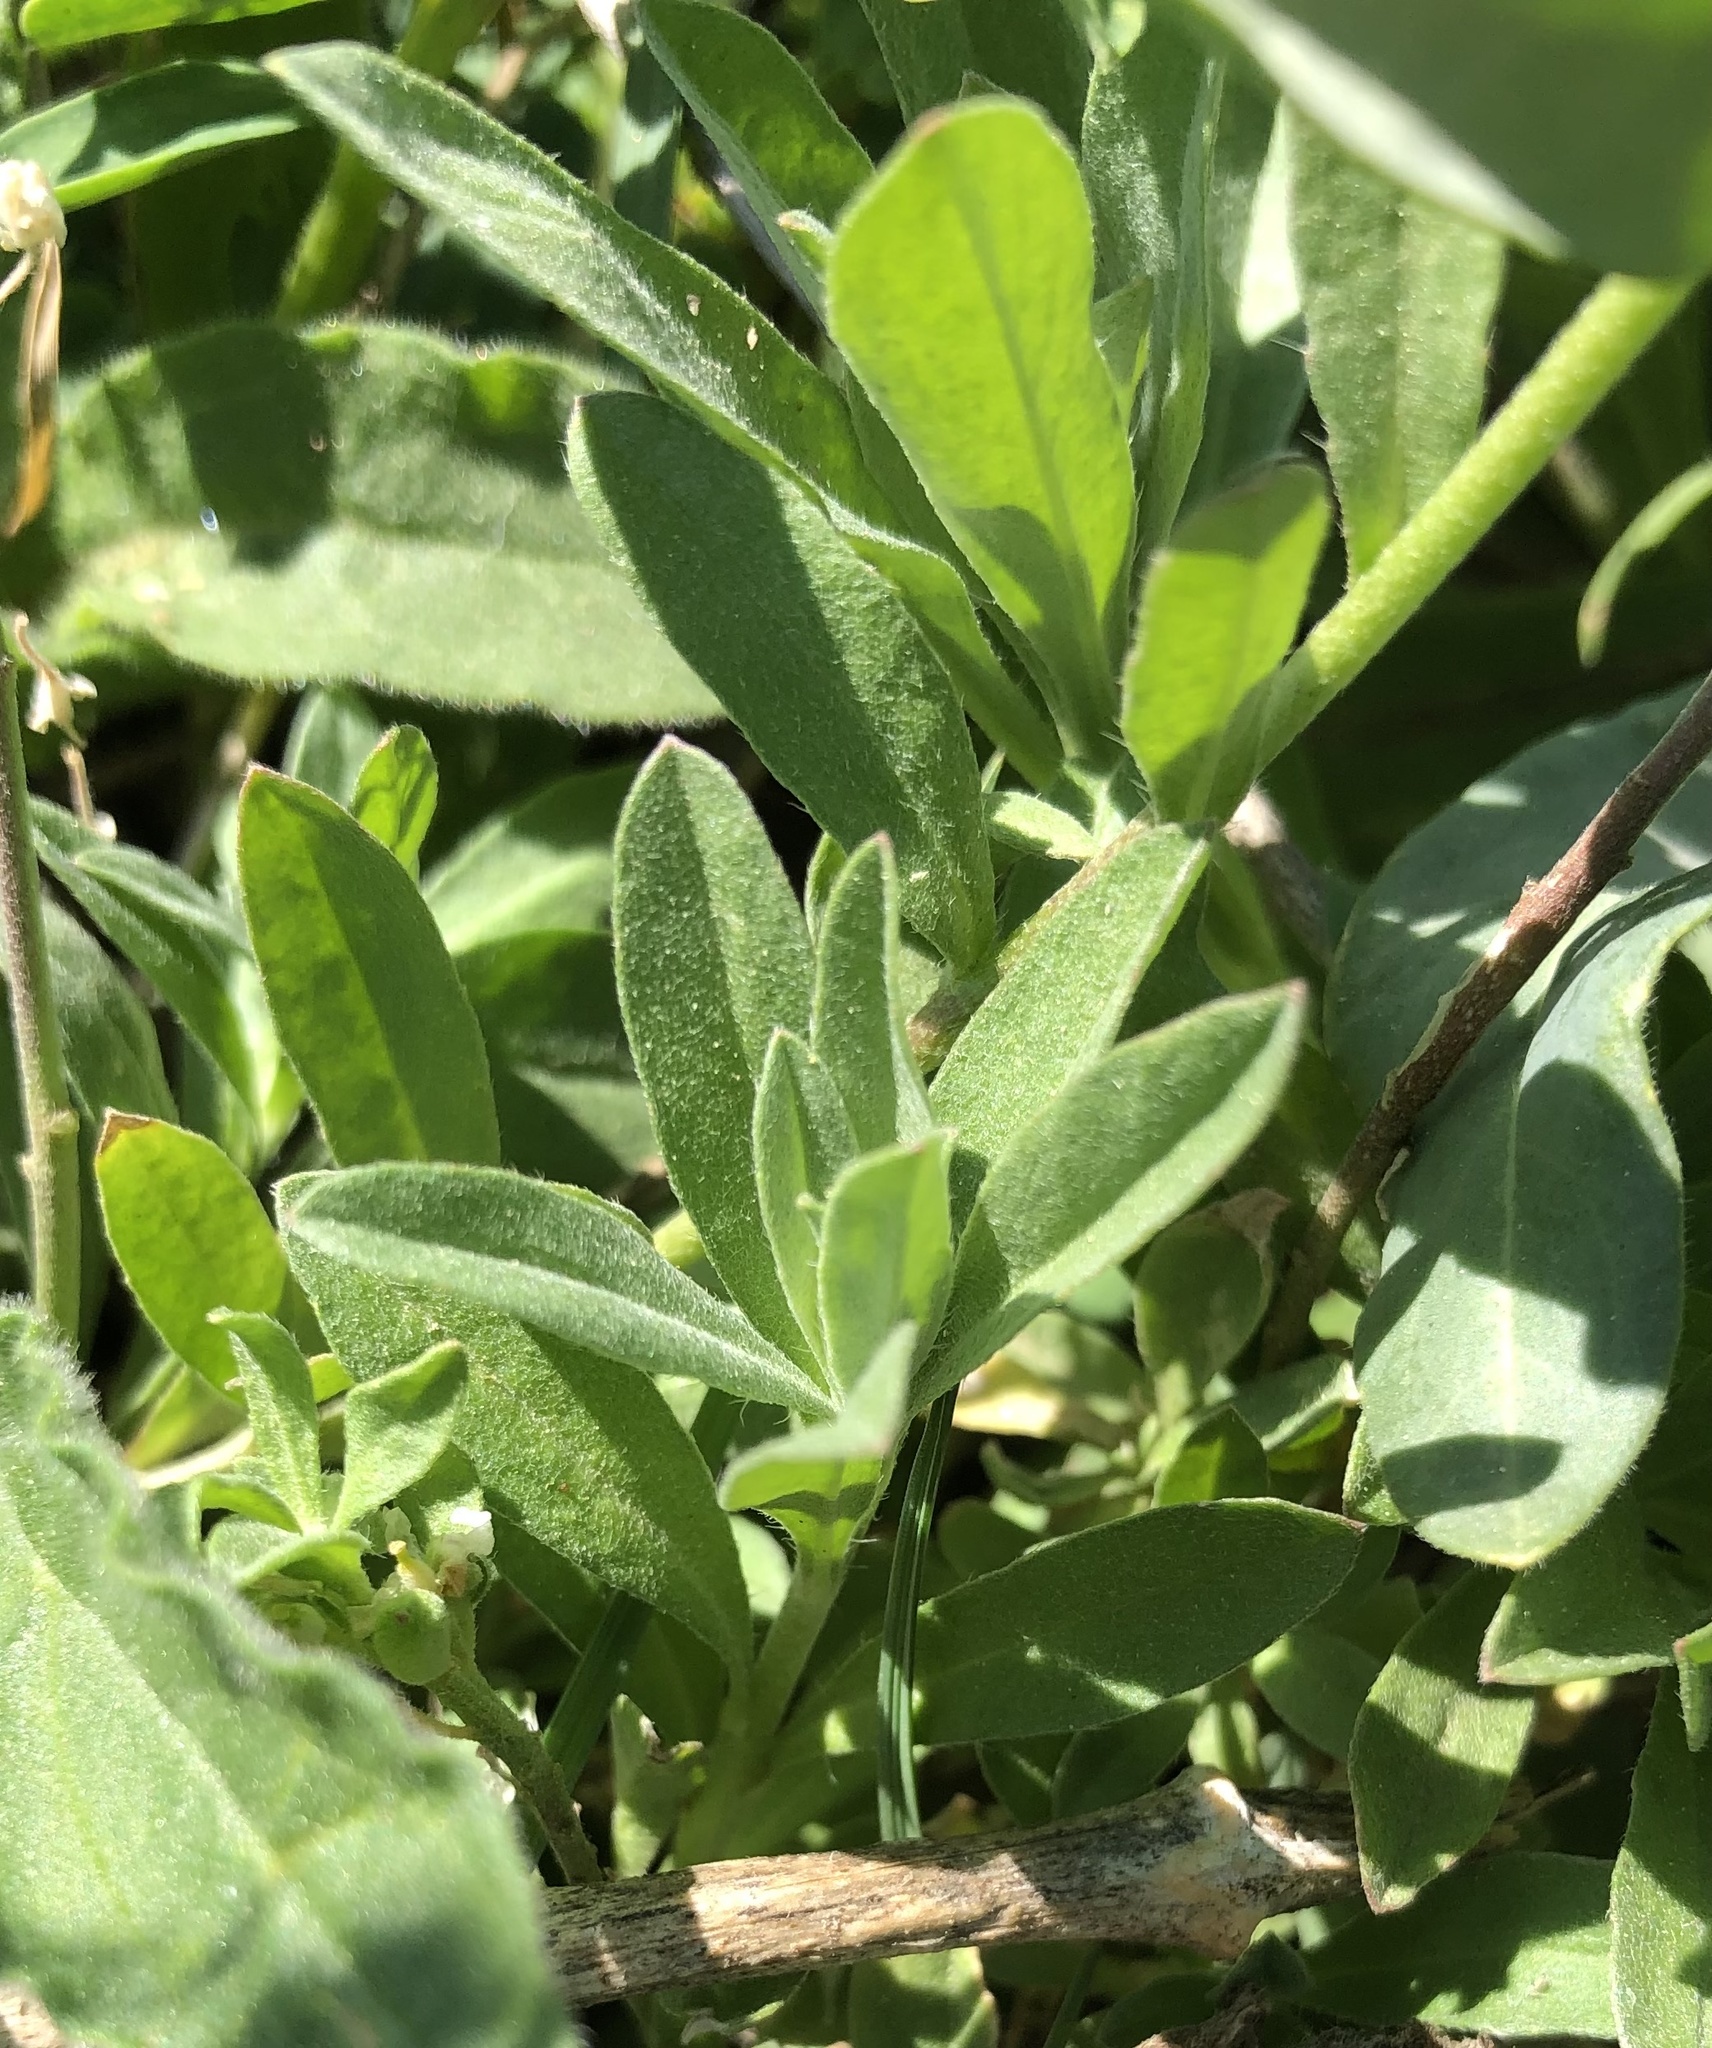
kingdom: Plantae
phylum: Tracheophyta
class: Magnoliopsida
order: Brassicales
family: Brassicaceae
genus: Berteroa
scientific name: Berteroa incana
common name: Hoary alison
